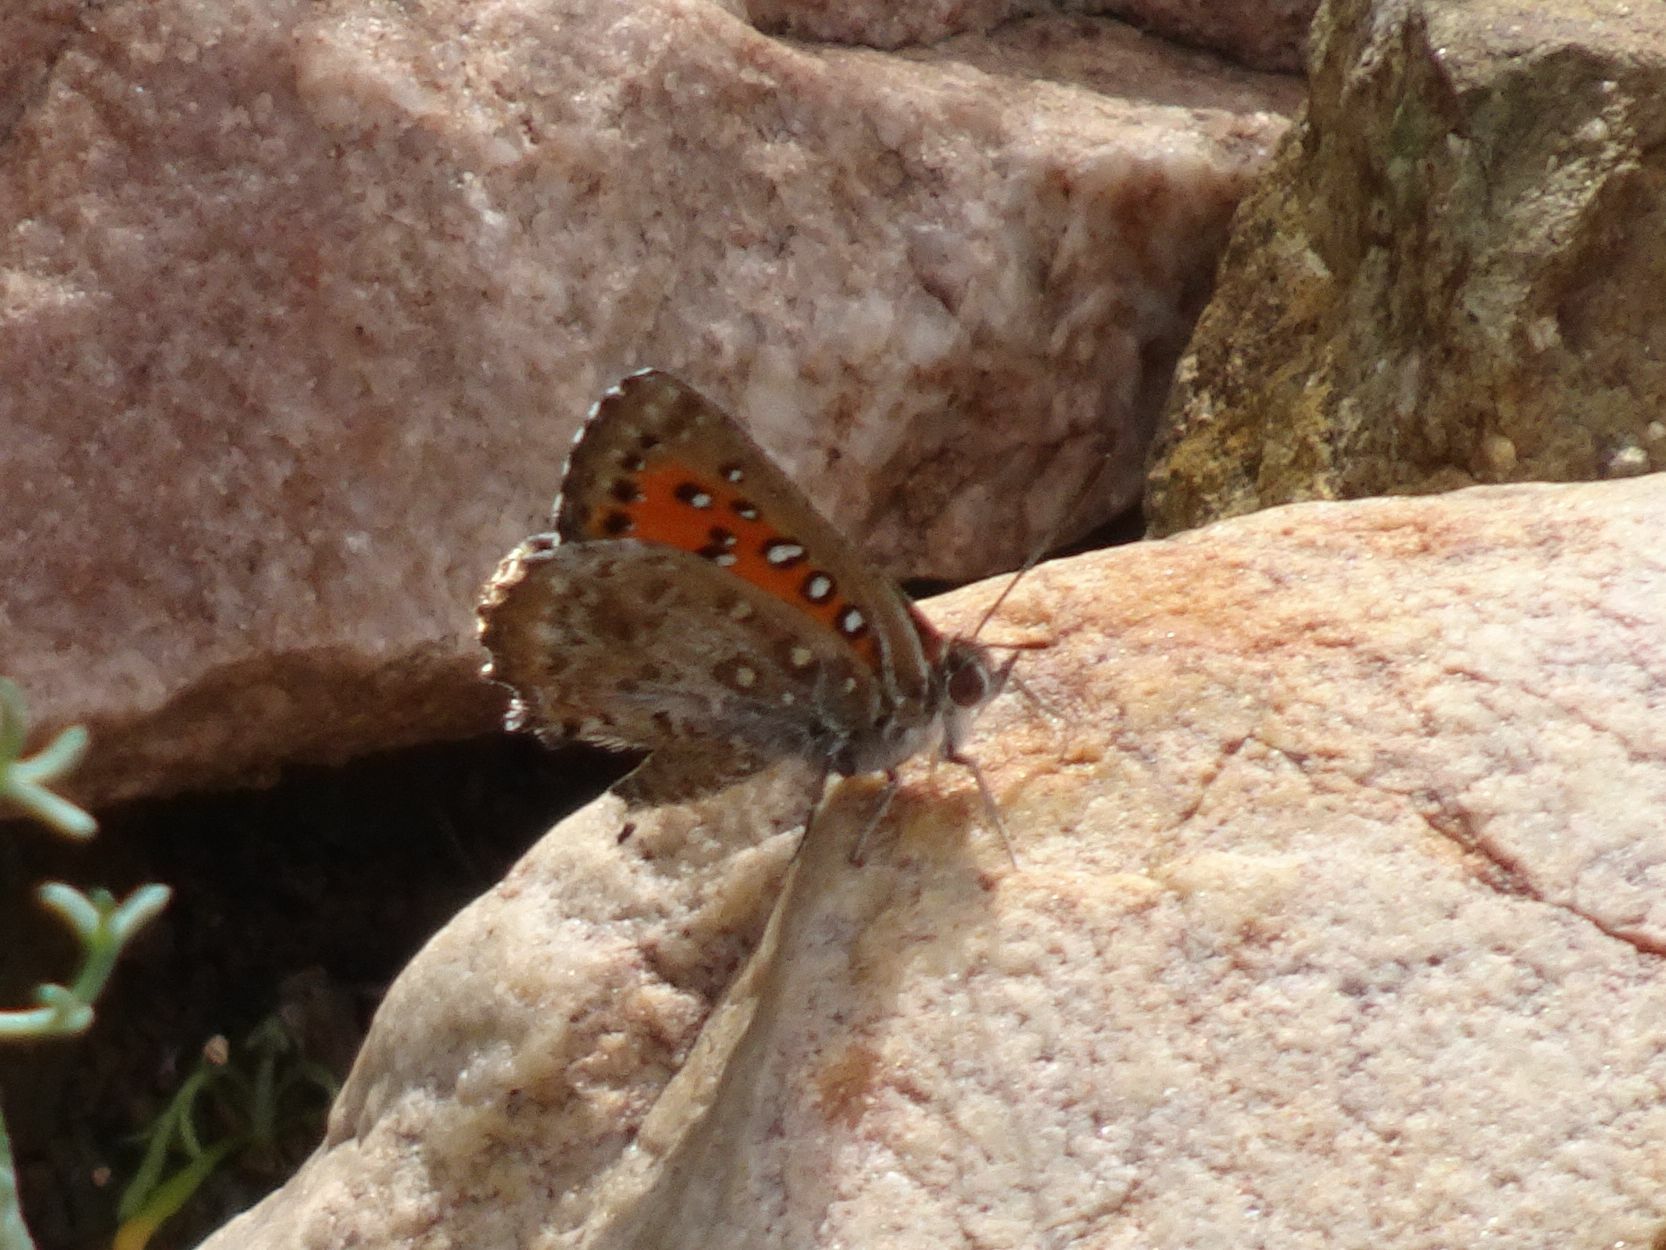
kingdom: Animalia
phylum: Arthropoda
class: Insecta
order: Lepidoptera
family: Lycaenidae
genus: Aloeides
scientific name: Aloeides pierus
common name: Dull copper
